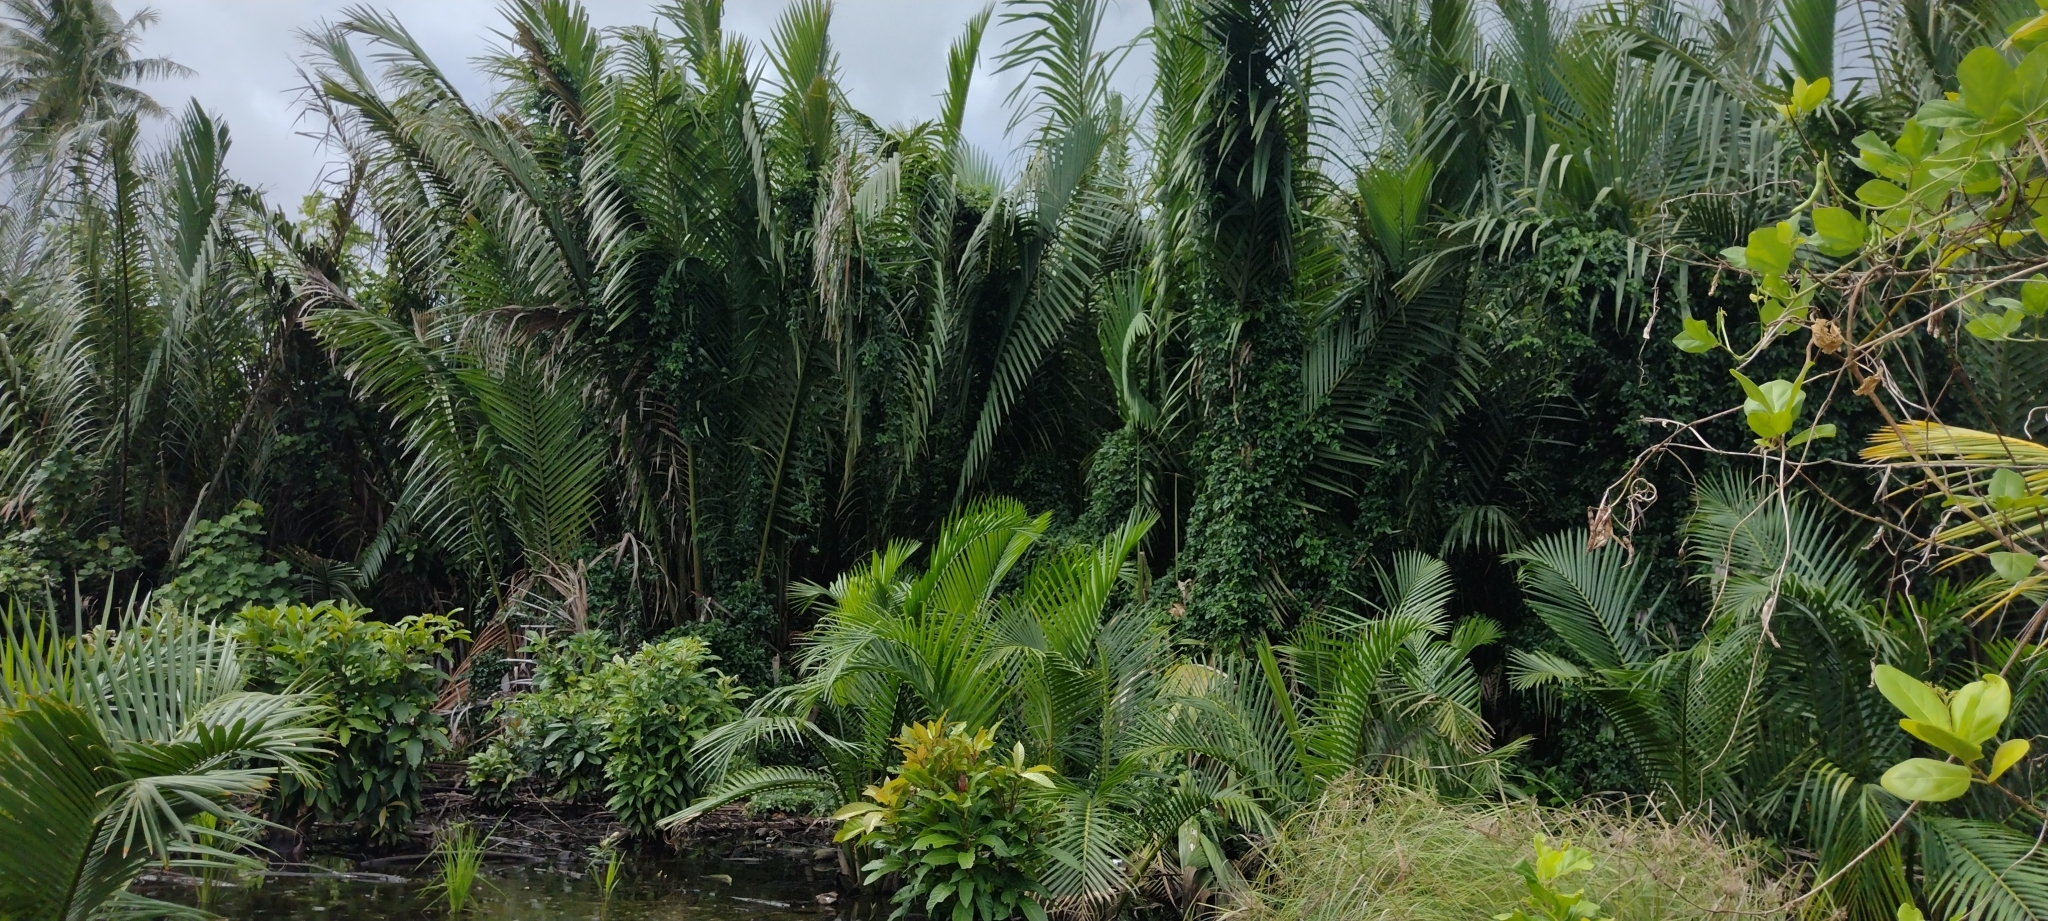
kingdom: Plantae
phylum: Tracheophyta
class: Liliopsida
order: Arecales
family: Arecaceae
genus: Nypa
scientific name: Nypa fruticans
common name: Mangrove palm
